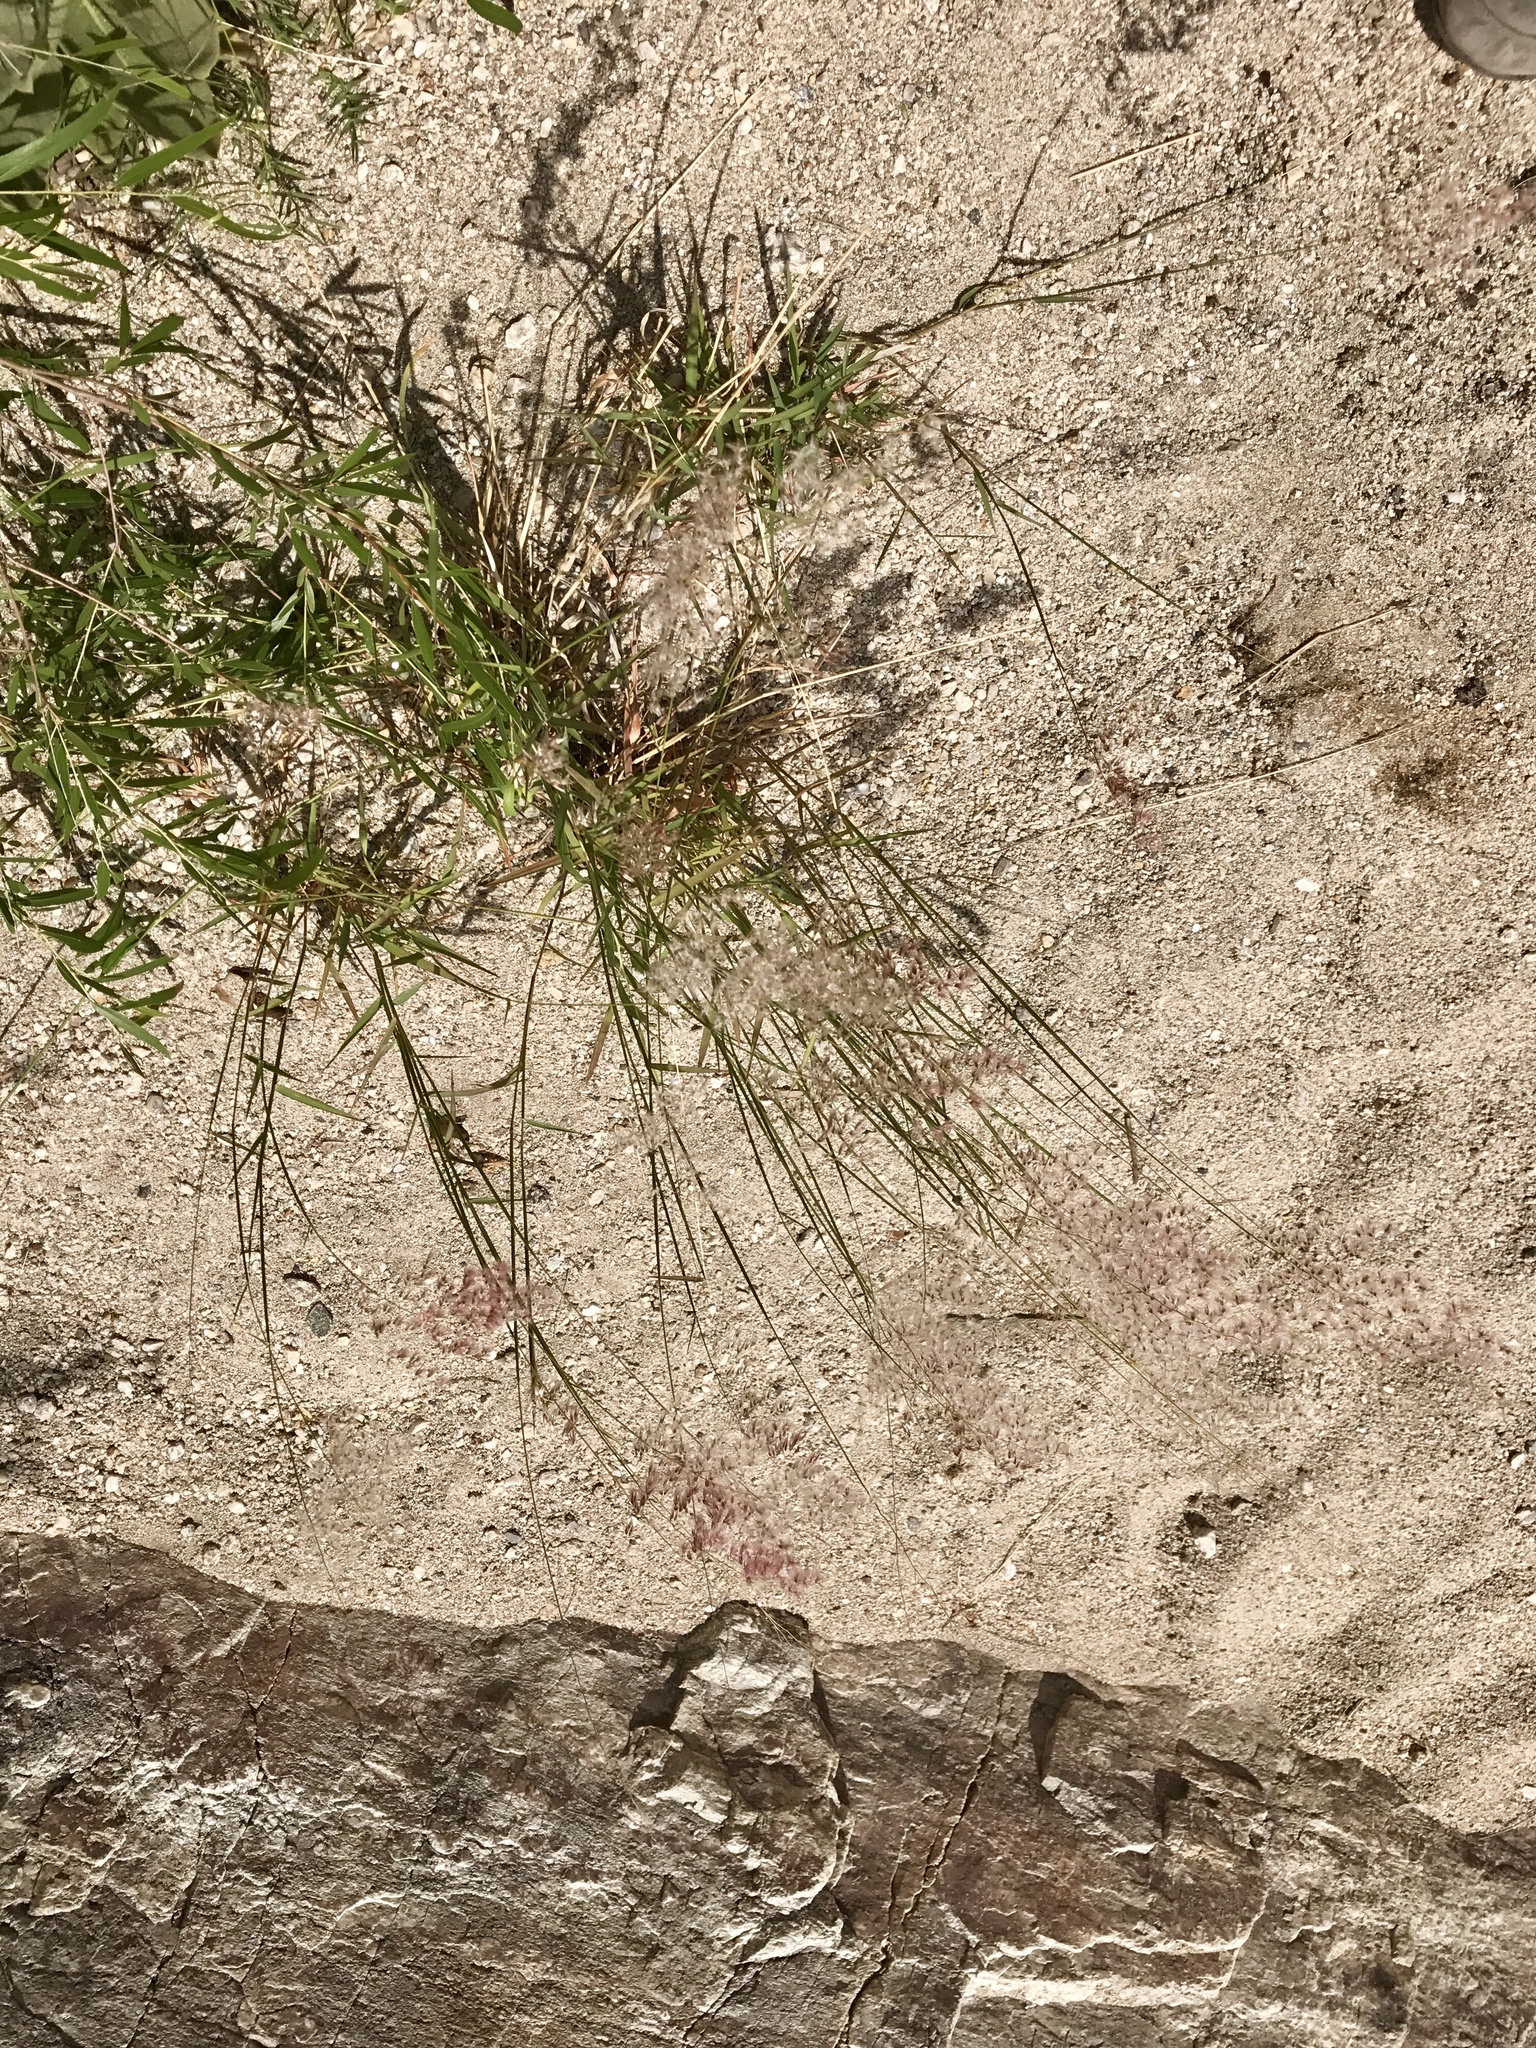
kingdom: Plantae
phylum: Tracheophyta
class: Liliopsida
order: Poales
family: Poaceae
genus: Melinis
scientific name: Melinis repens
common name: Rose natal grass
